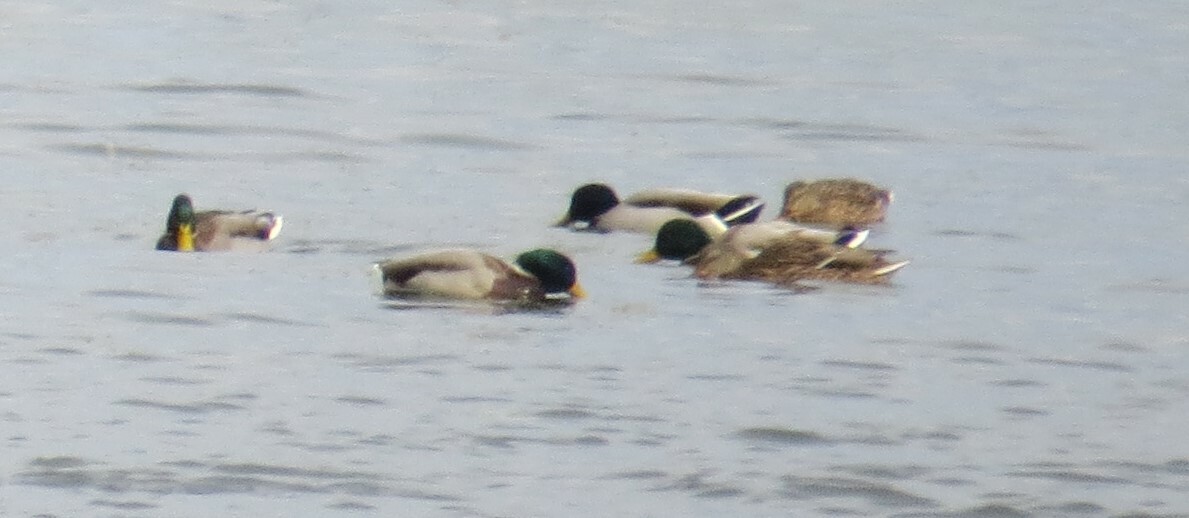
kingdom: Animalia
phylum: Chordata
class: Aves
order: Anseriformes
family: Anatidae
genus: Anas
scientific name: Anas platyrhynchos
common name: Mallard
